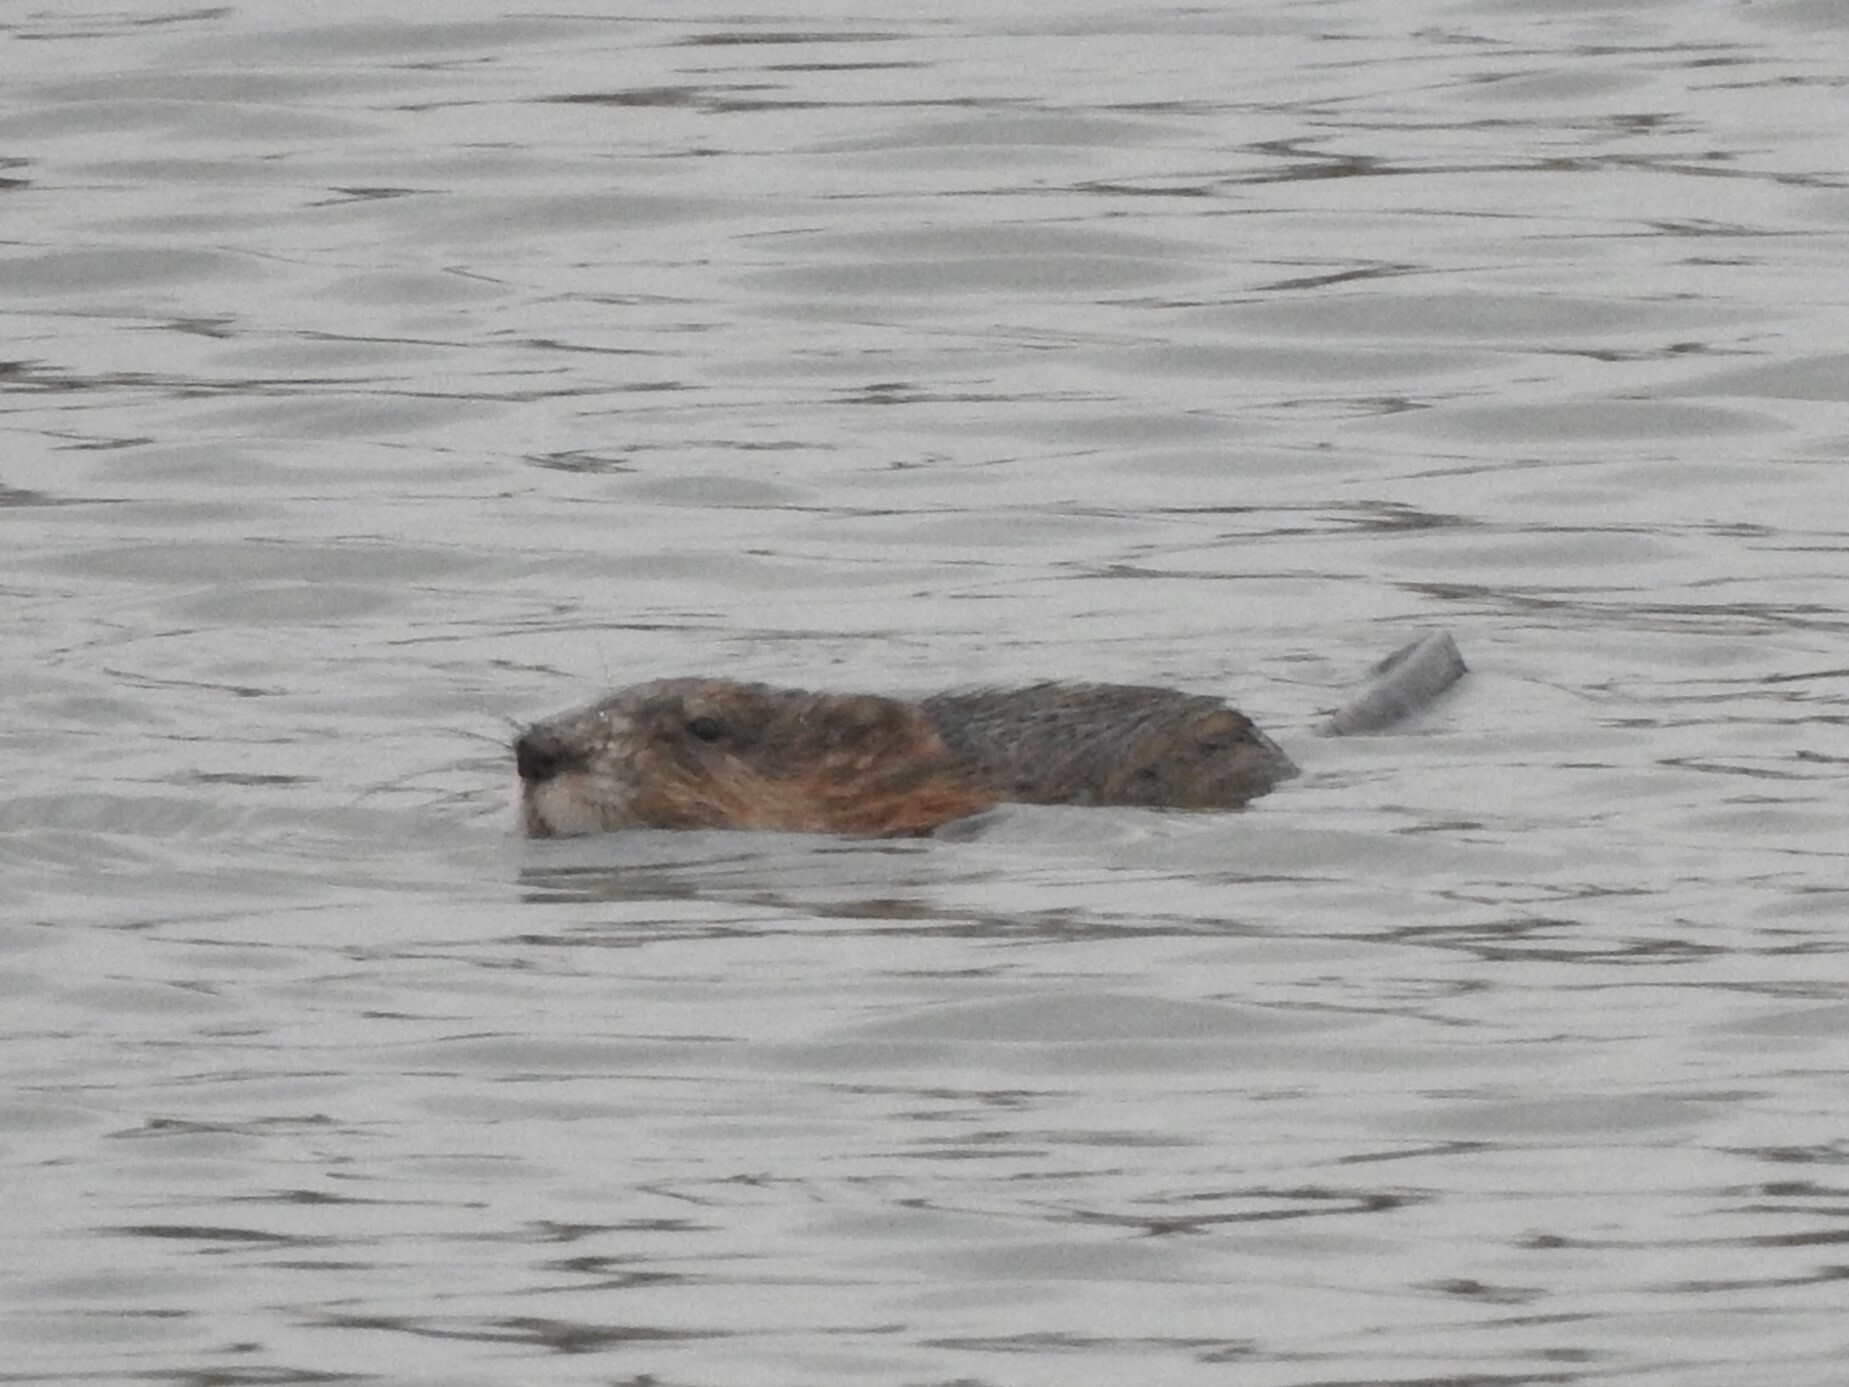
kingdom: Animalia
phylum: Chordata
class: Mammalia
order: Rodentia
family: Cricetidae
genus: Ondatra
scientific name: Ondatra zibethicus
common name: Muskrat
